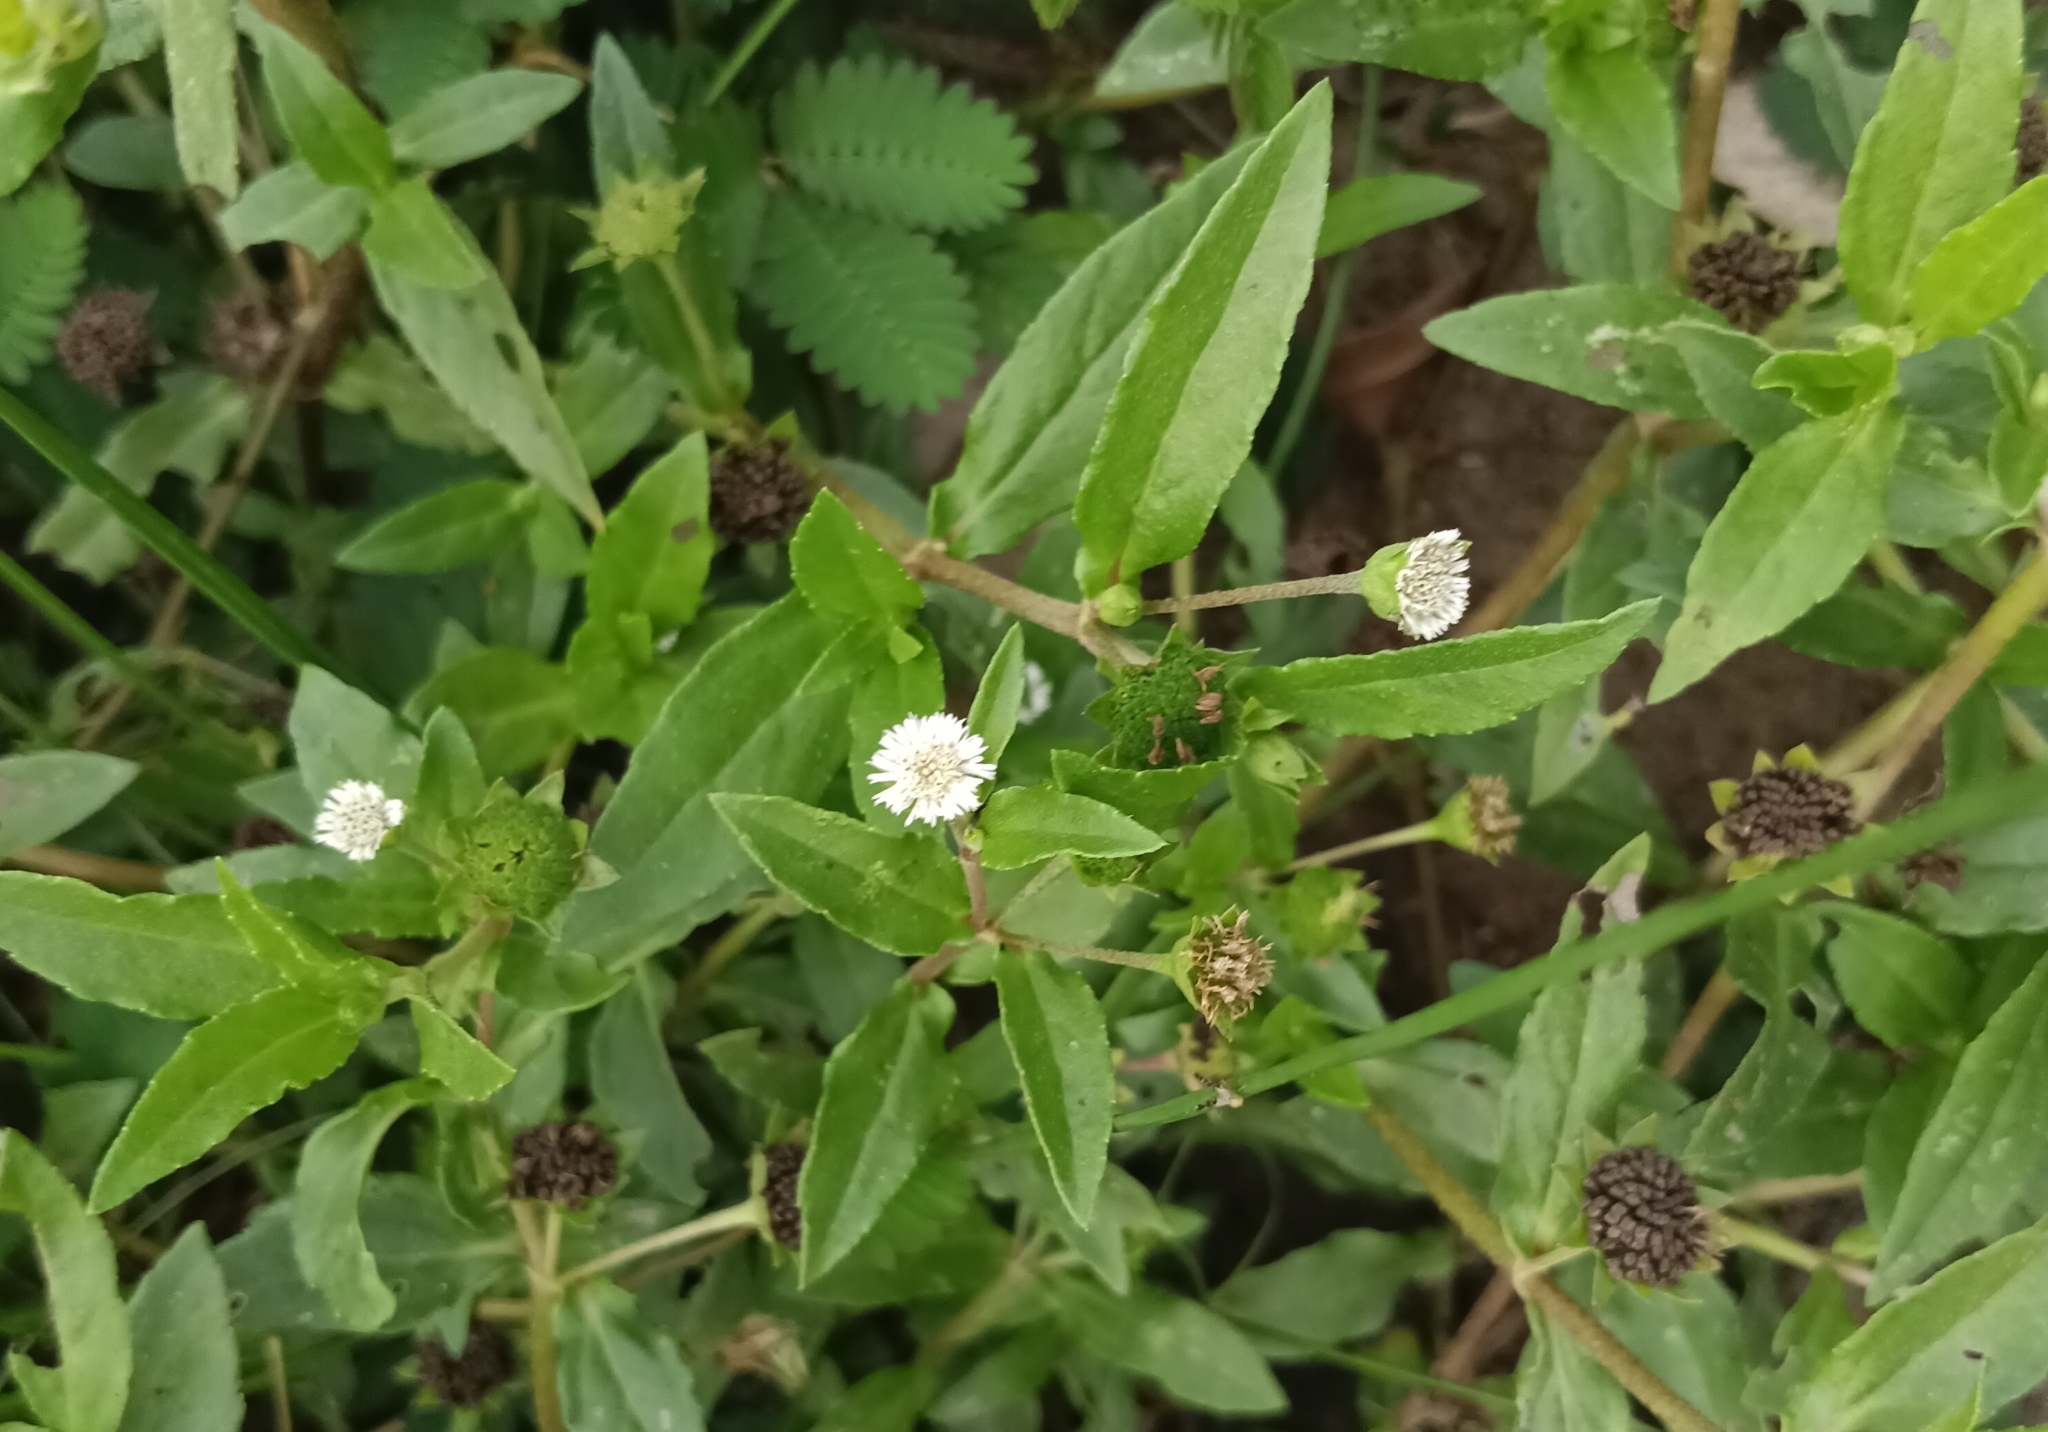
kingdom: Plantae
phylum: Tracheophyta
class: Magnoliopsida
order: Asterales
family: Asteraceae
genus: Eclipta
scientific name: Eclipta prostrata
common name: False daisy
